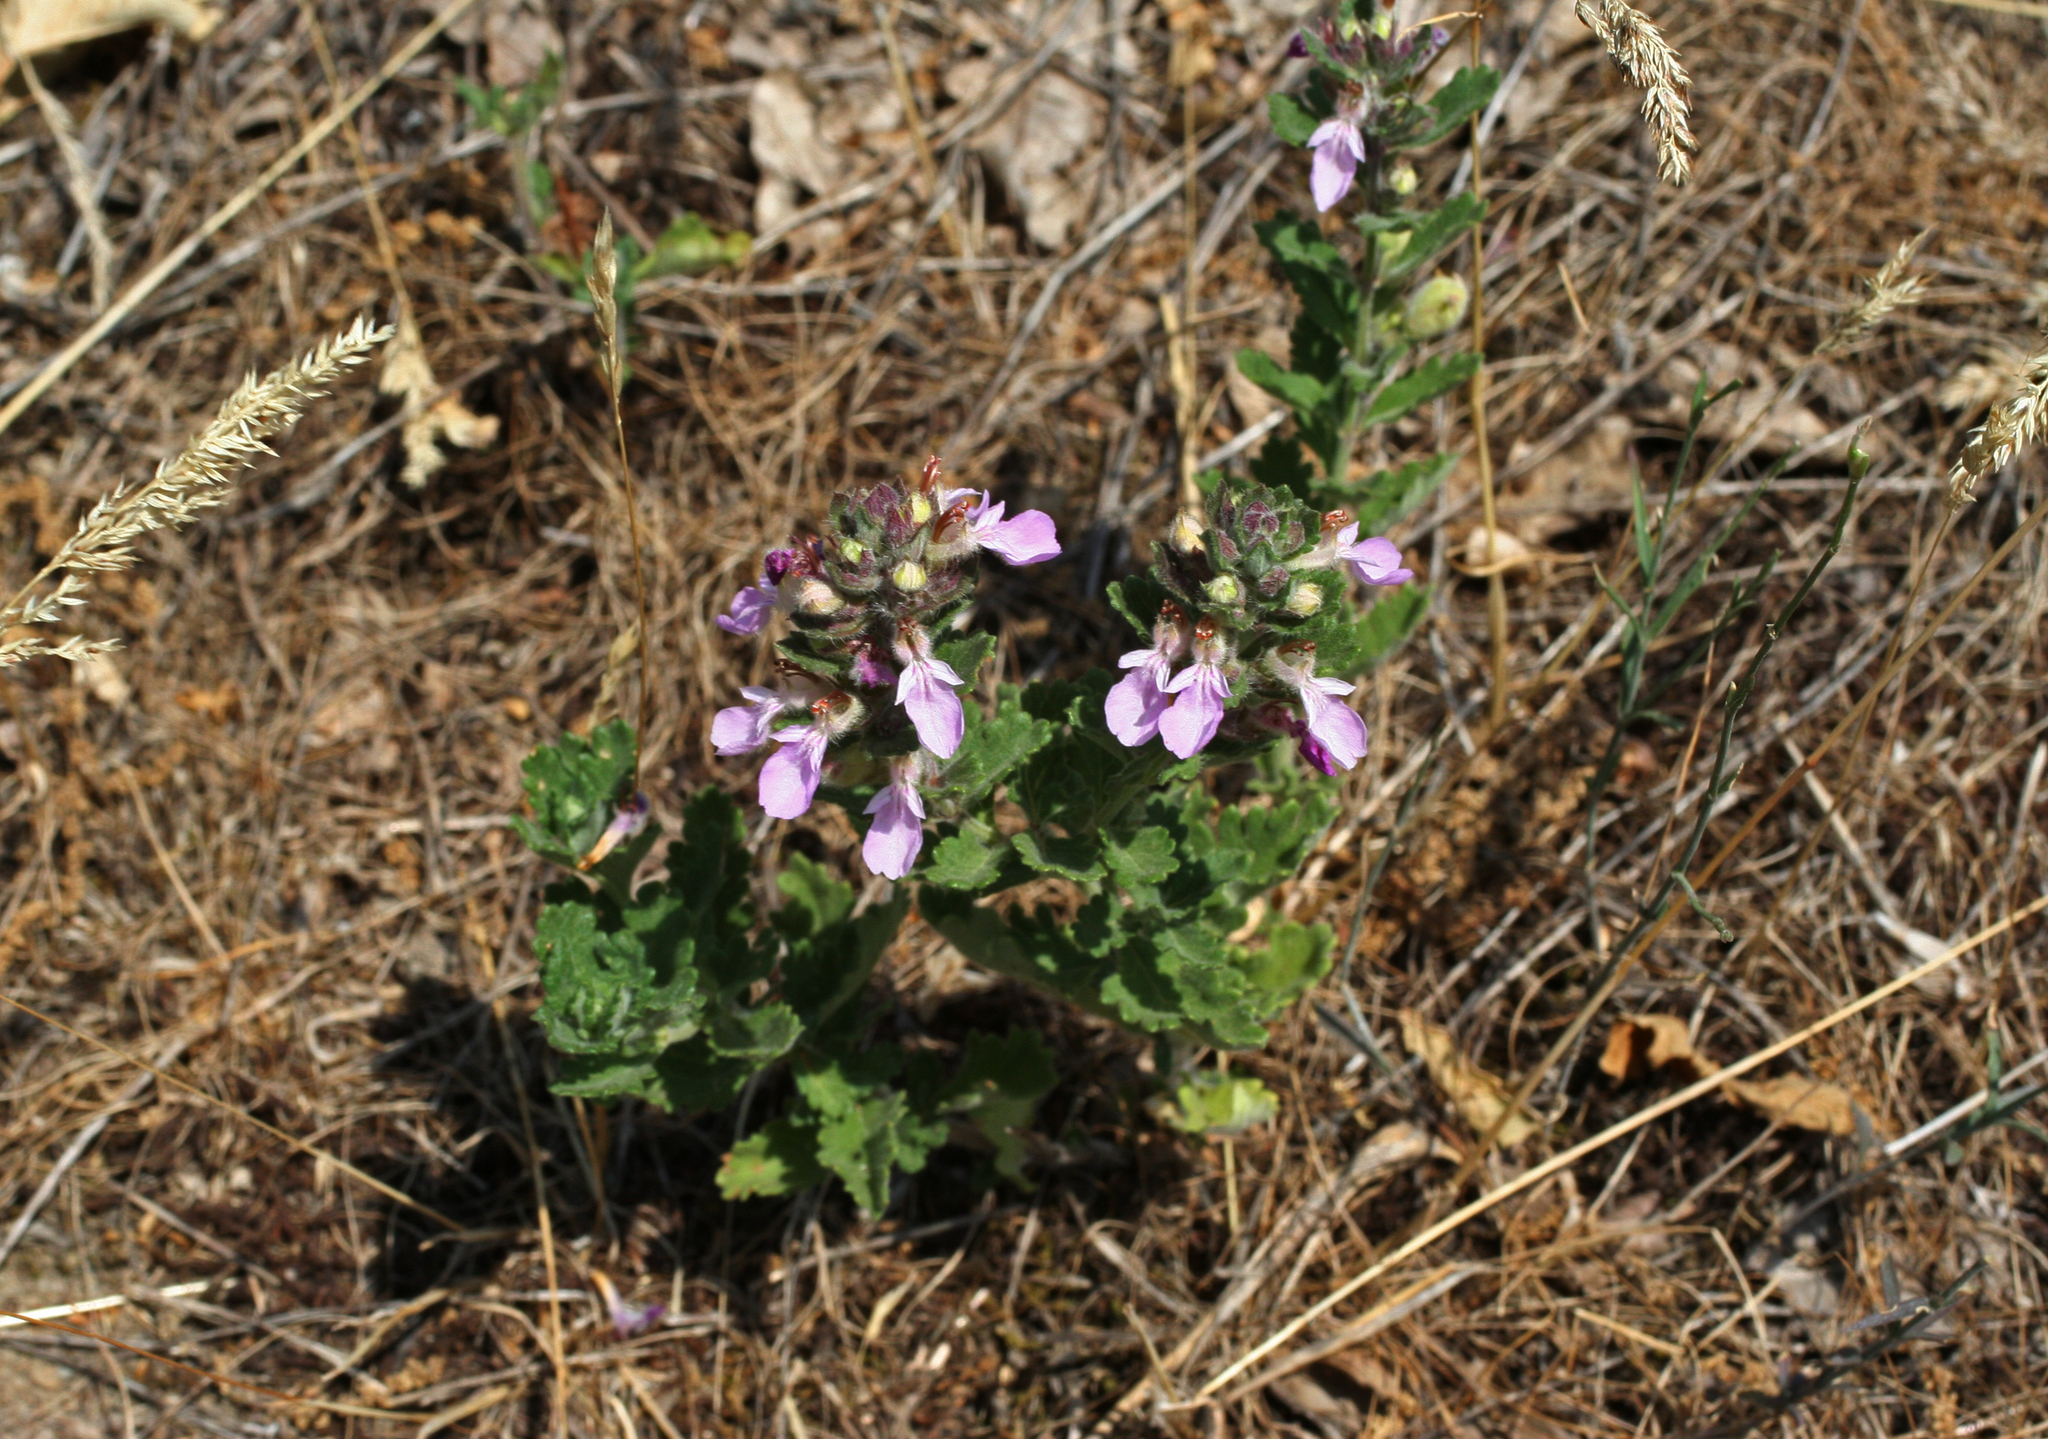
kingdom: Plantae
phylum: Tracheophyta
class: Magnoliopsida
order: Lamiales
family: Lamiaceae
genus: Teucrium
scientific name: Teucrium chamaedrys
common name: Wall germander
